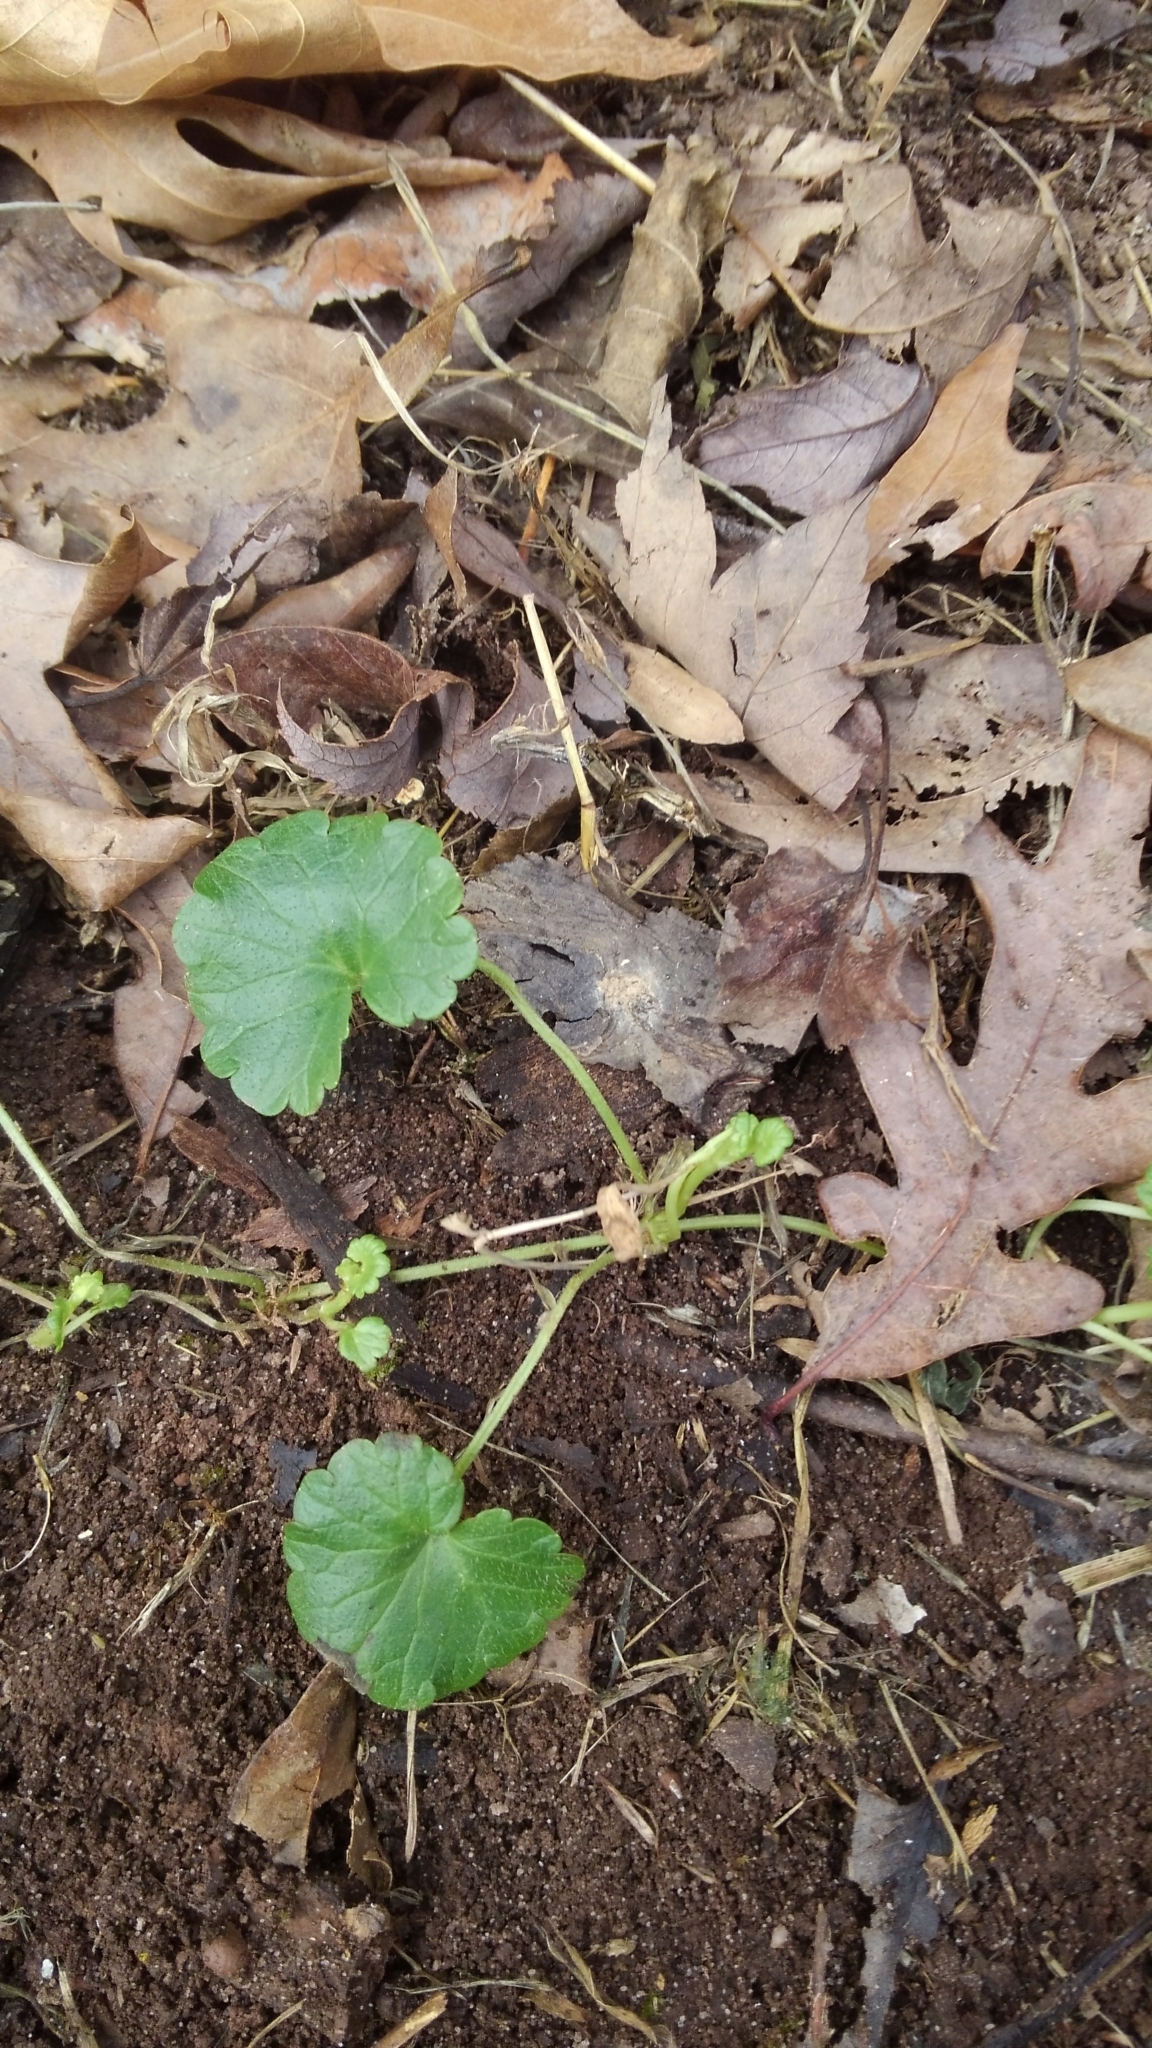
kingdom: Plantae
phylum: Tracheophyta
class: Magnoliopsida
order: Lamiales
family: Lamiaceae
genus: Glechoma
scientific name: Glechoma hederacea
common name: Ground ivy
